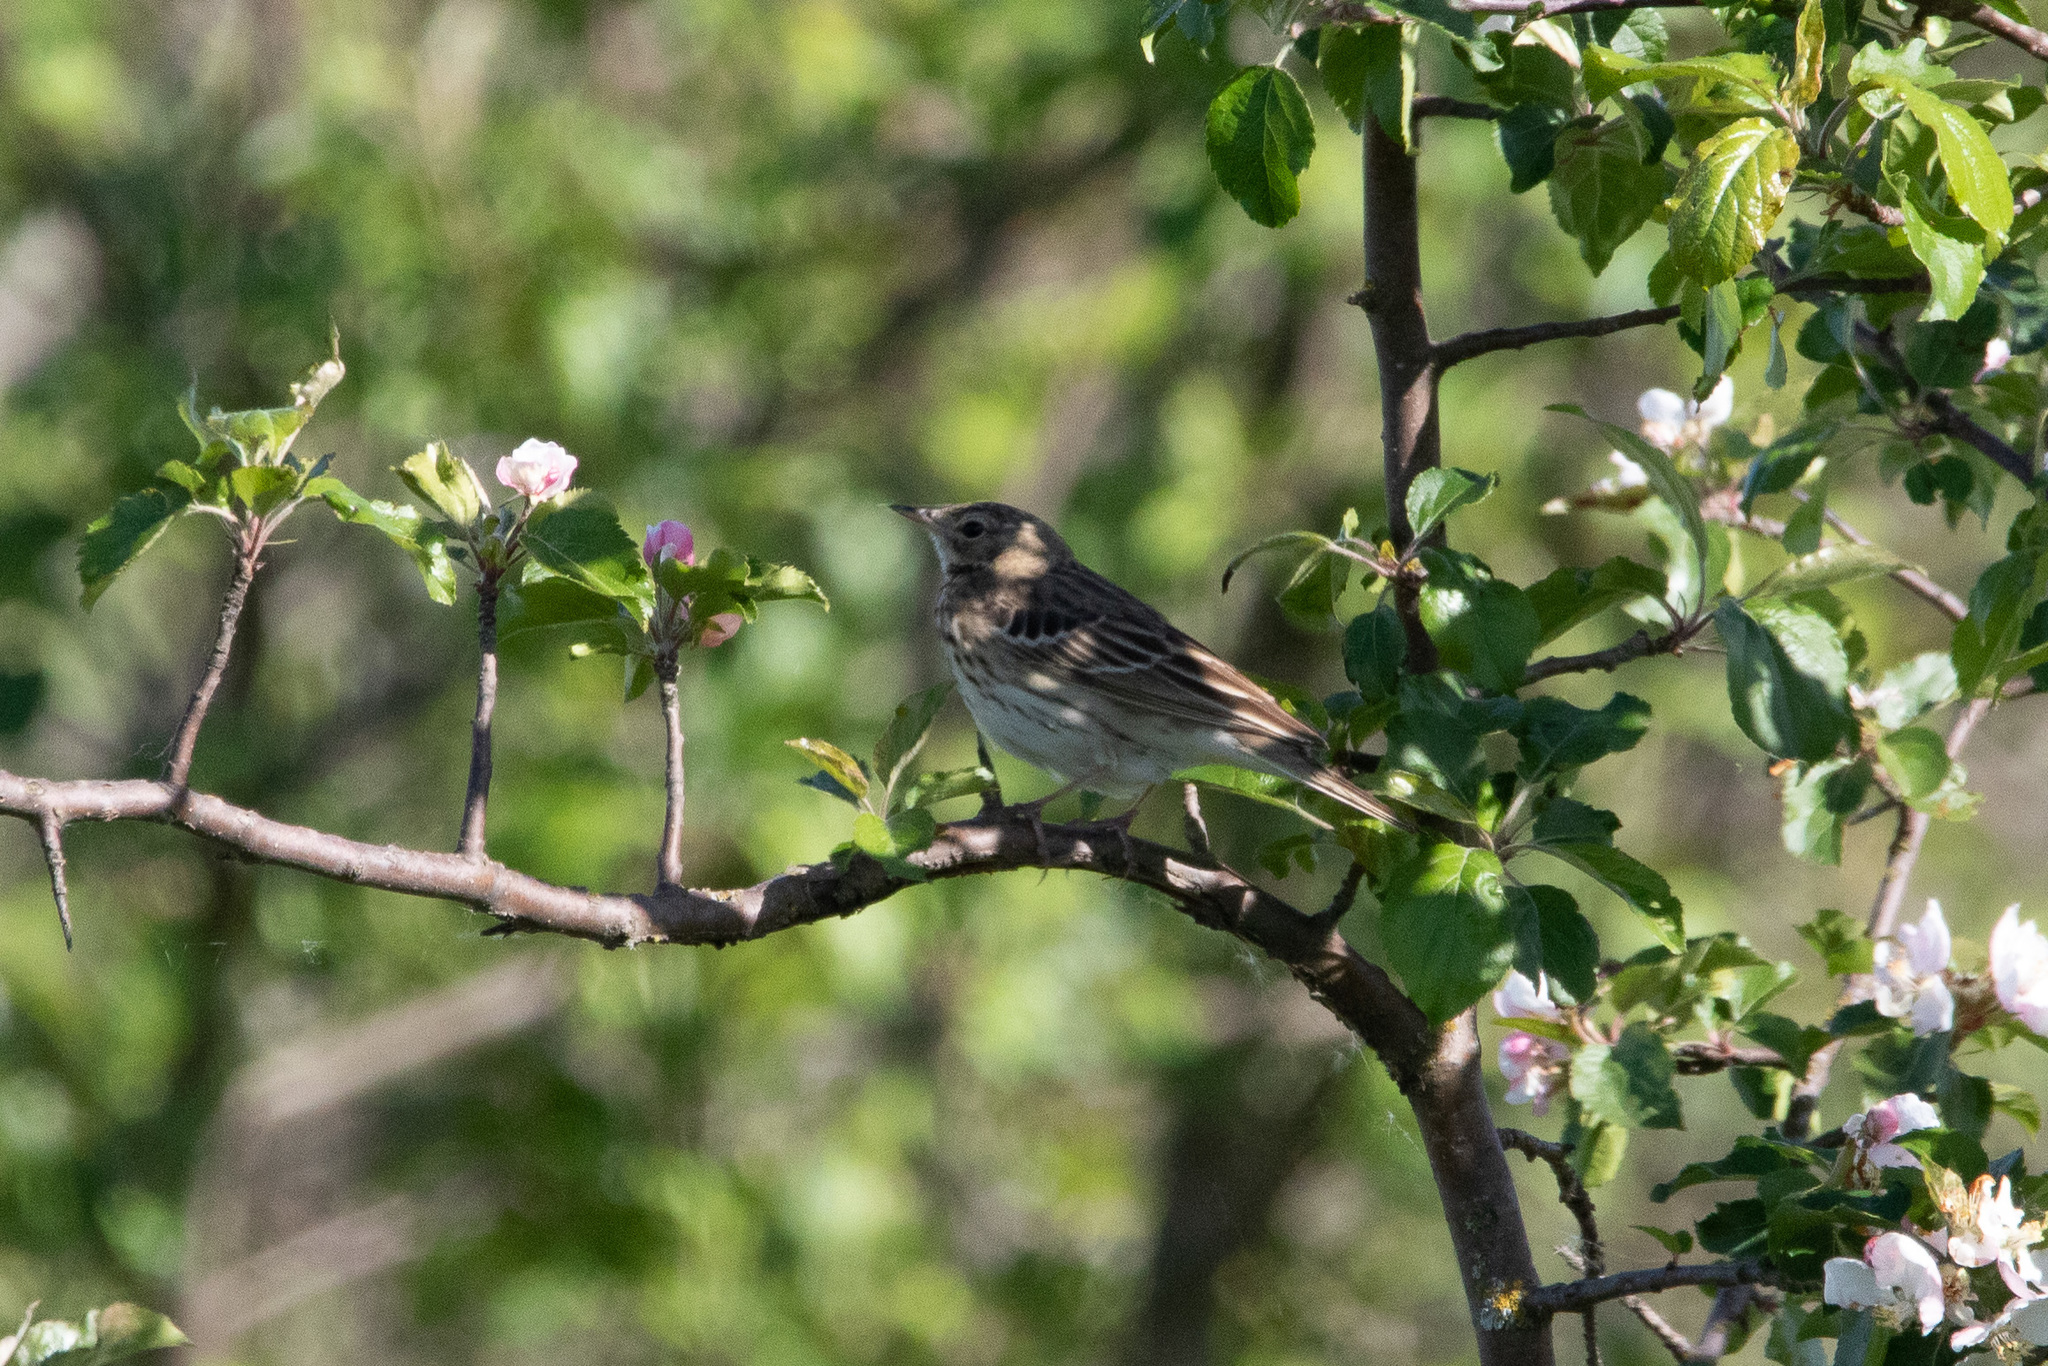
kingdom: Animalia
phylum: Chordata
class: Aves
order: Passeriformes
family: Motacillidae
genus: Anthus
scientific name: Anthus trivialis
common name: Tree pipit
